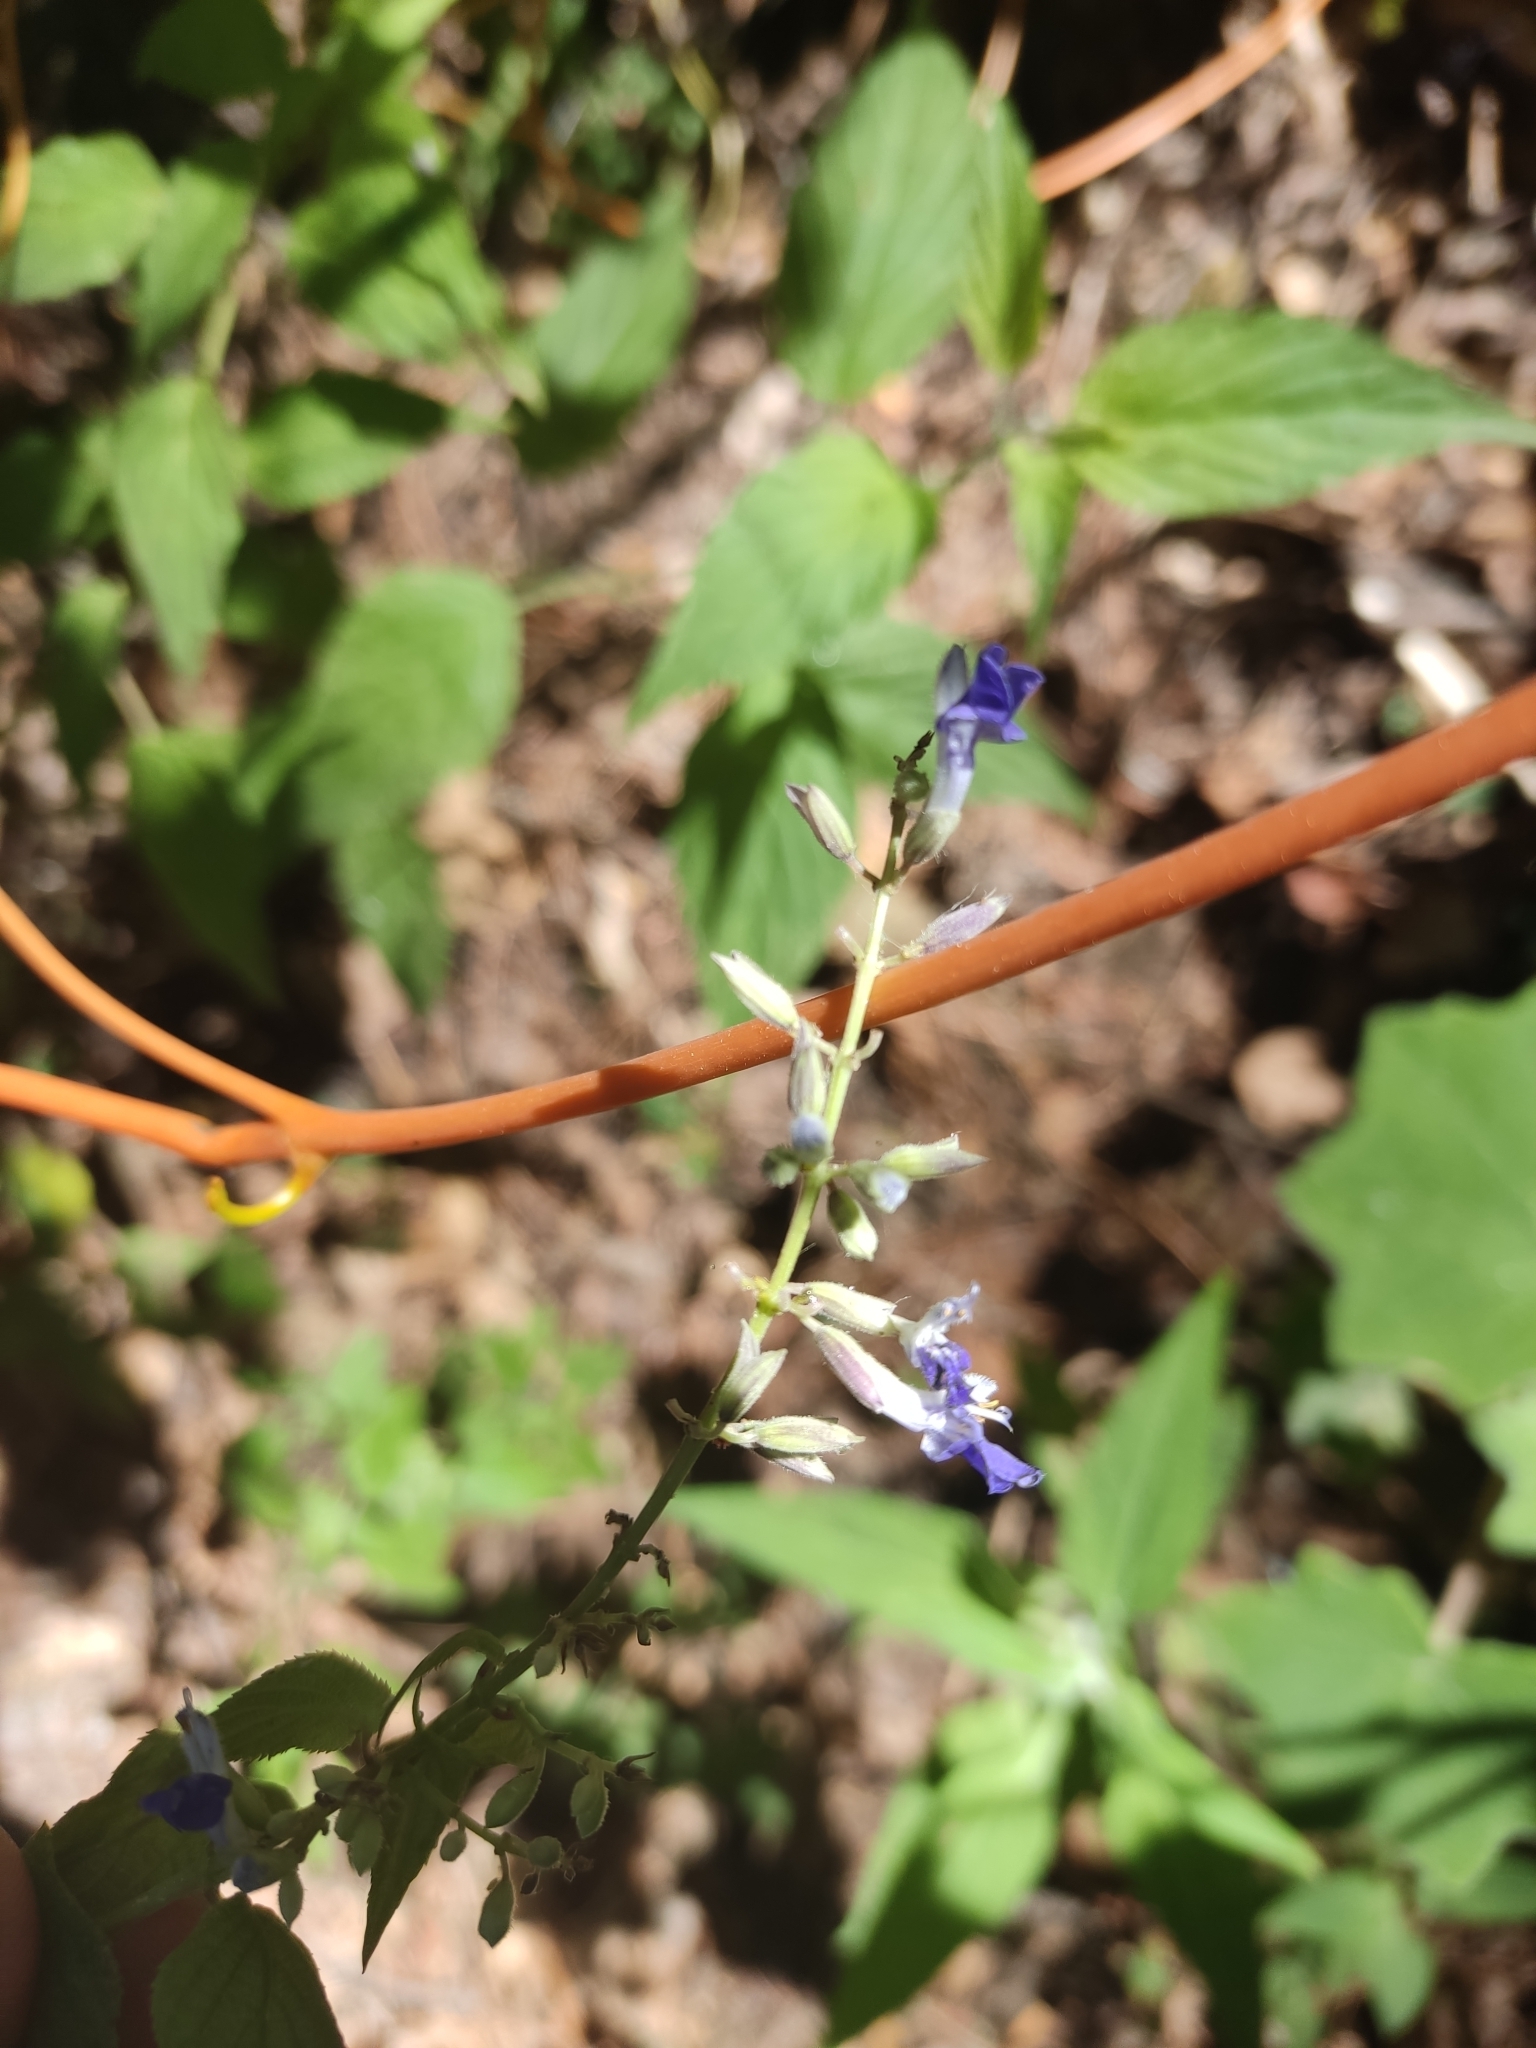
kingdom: Plantae
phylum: Tracheophyta
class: Magnoliopsida
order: Lamiales
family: Lamiaceae
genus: Salvia
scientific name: Salvia plurispicata
